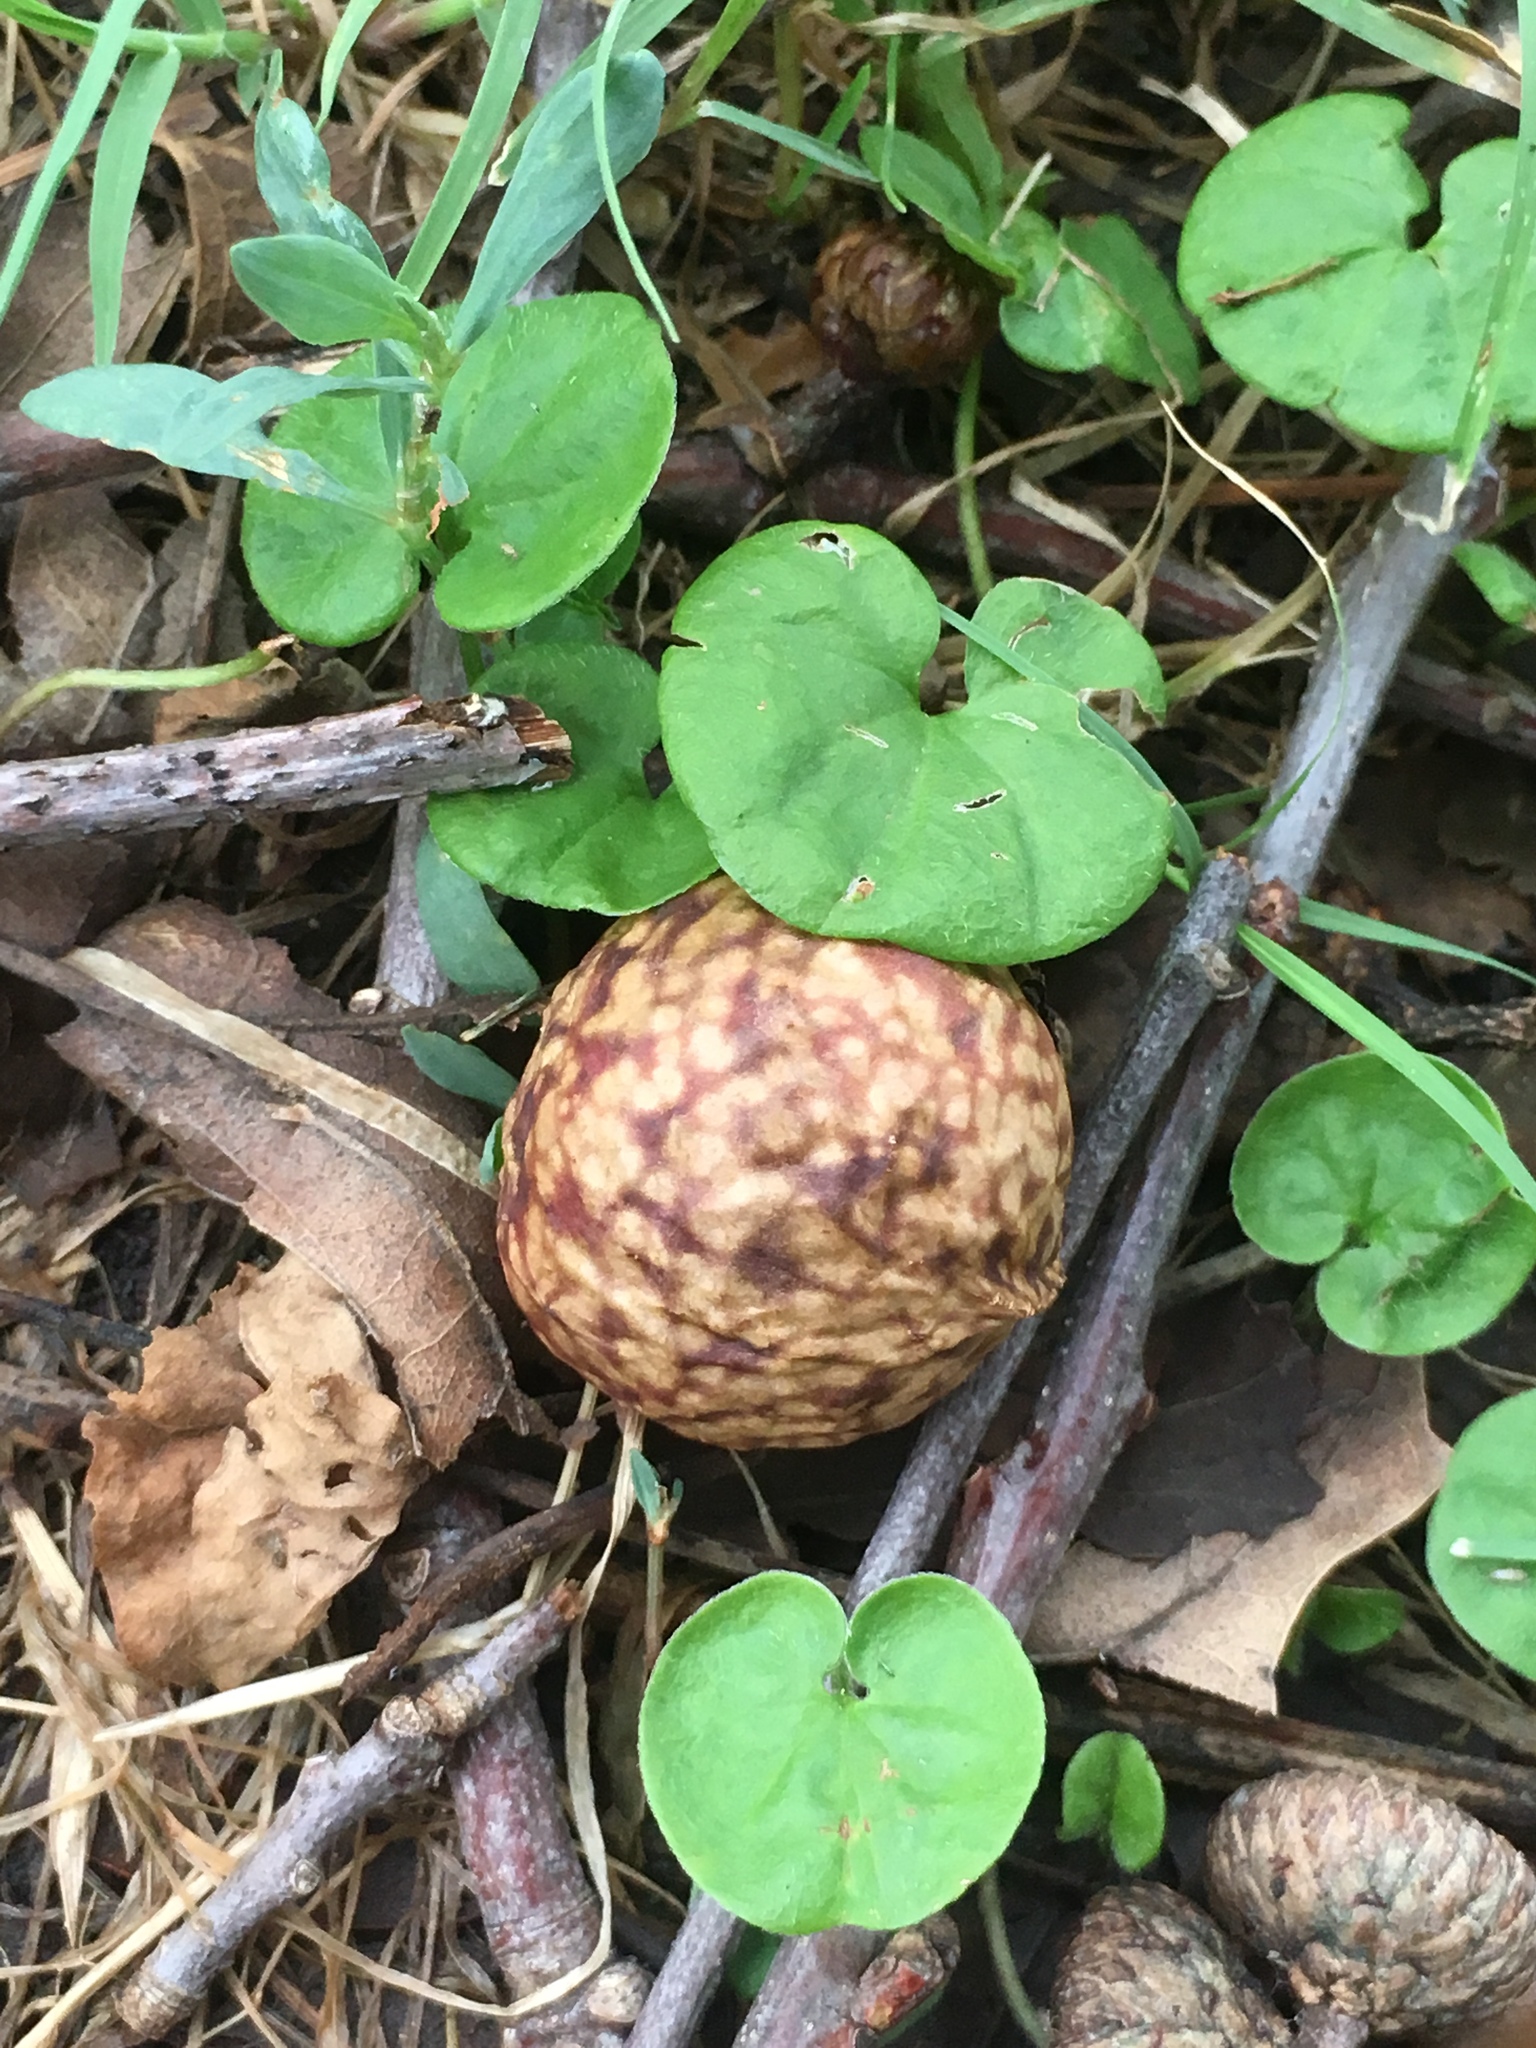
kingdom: Animalia
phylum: Arthropoda
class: Insecta
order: Hymenoptera
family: Cynipidae
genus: Amphibolips
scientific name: Amphibolips
